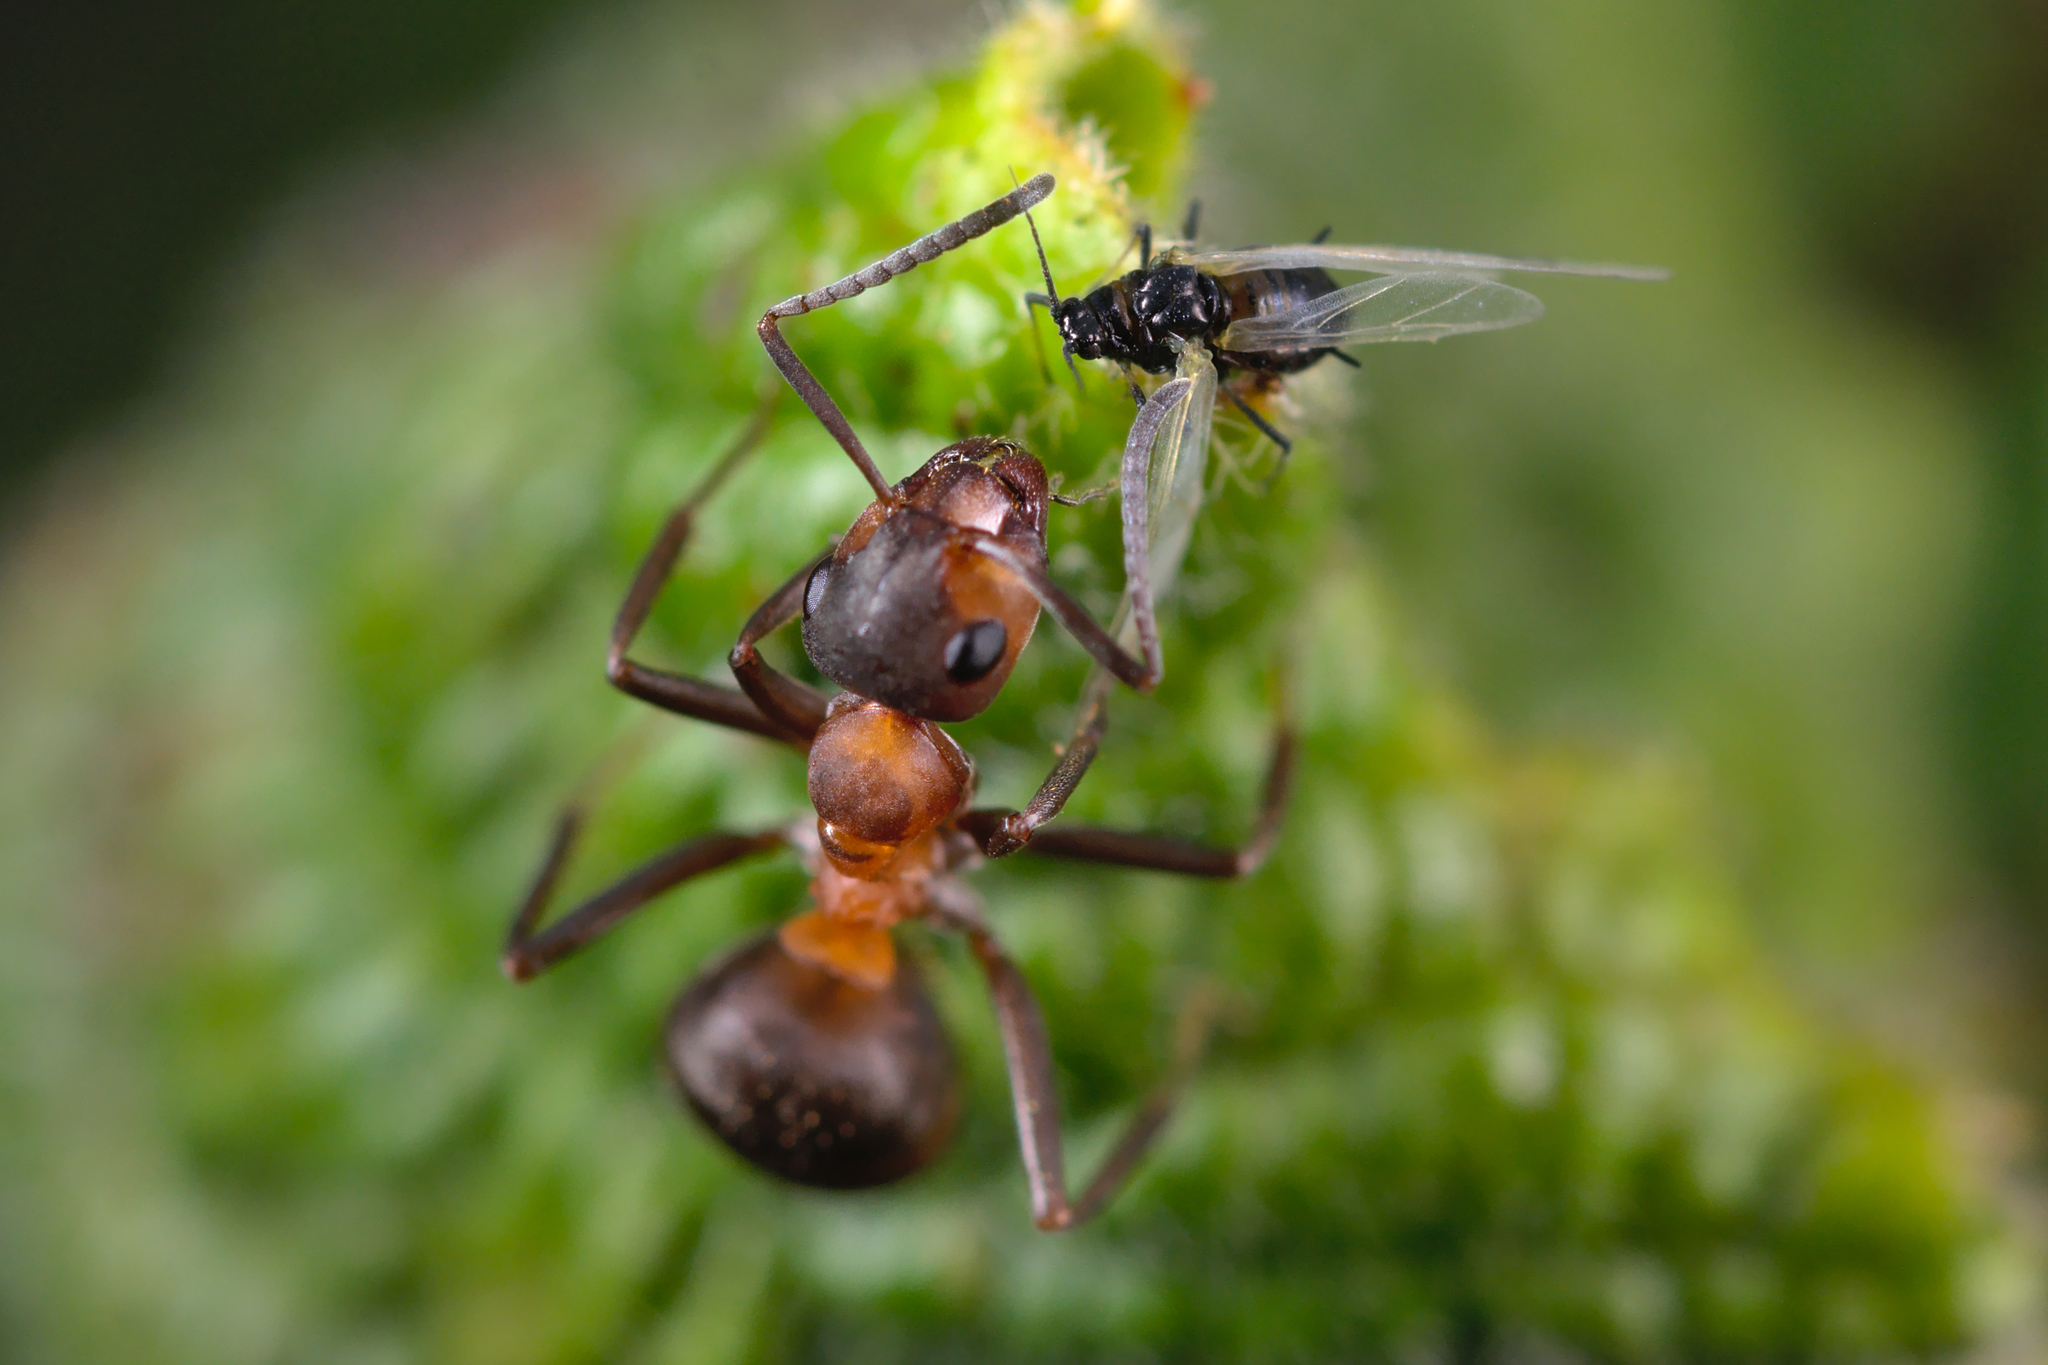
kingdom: Animalia
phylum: Arthropoda
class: Insecta
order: Hymenoptera
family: Formicidae
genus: Formica
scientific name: Formica polyctena
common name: European red wood ant
